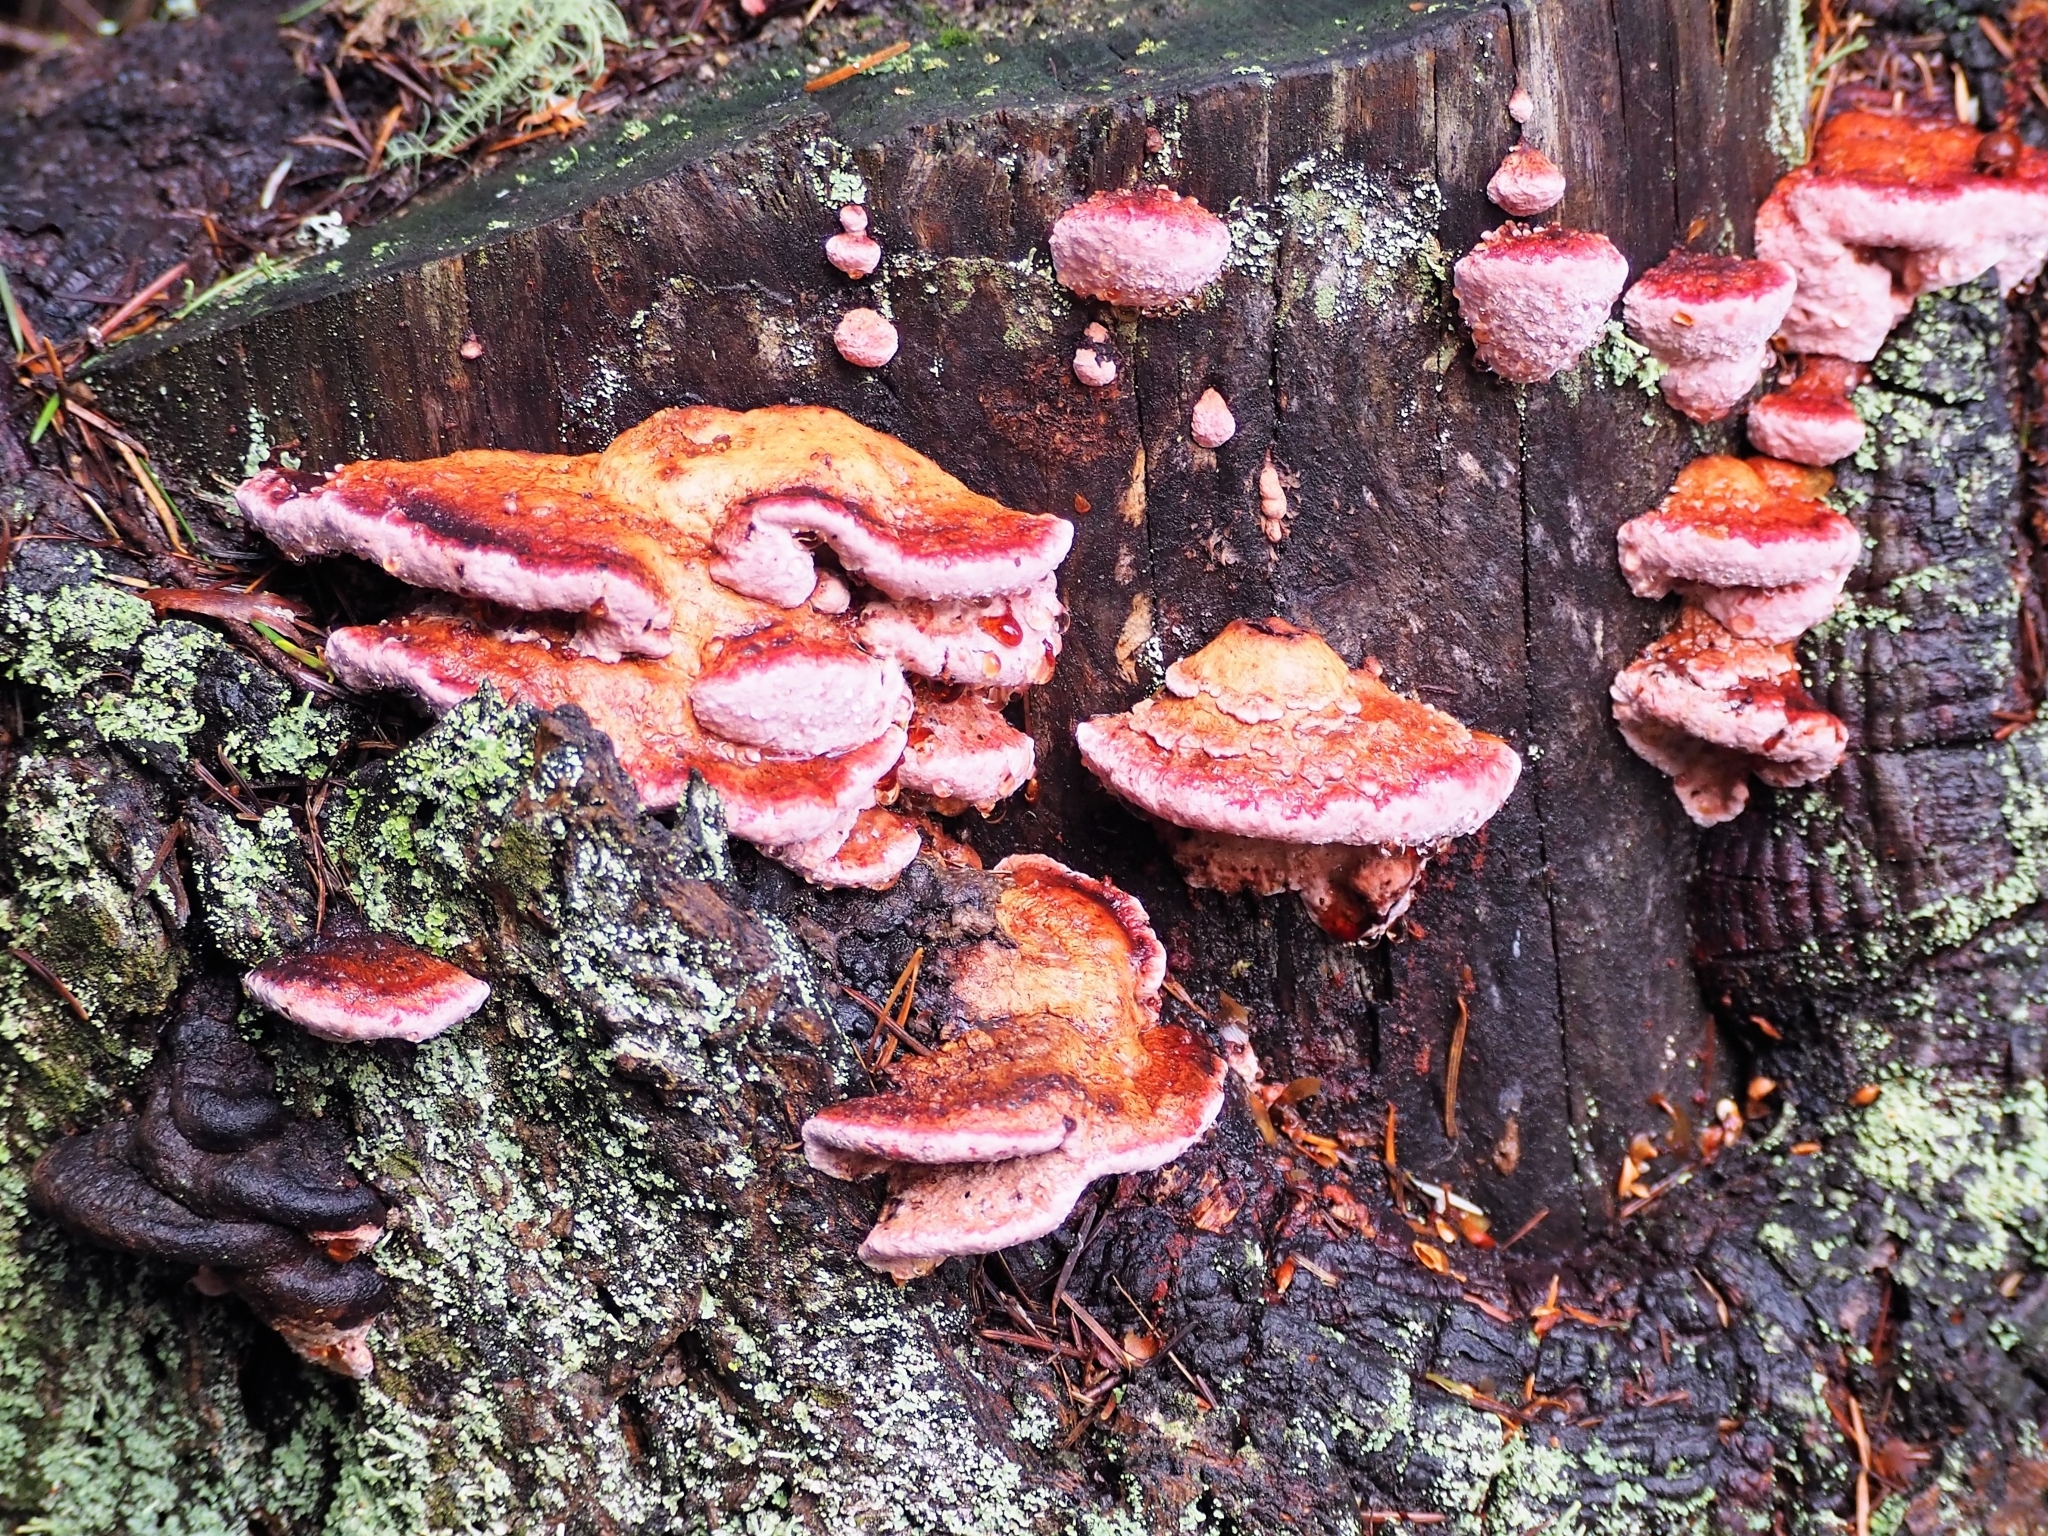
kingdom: Fungi
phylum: Basidiomycota
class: Agaricomycetes
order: Polyporales
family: Fomitopsidaceae
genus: Rhodofomes
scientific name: Rhodofomes cajanderi
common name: Rosy conk
